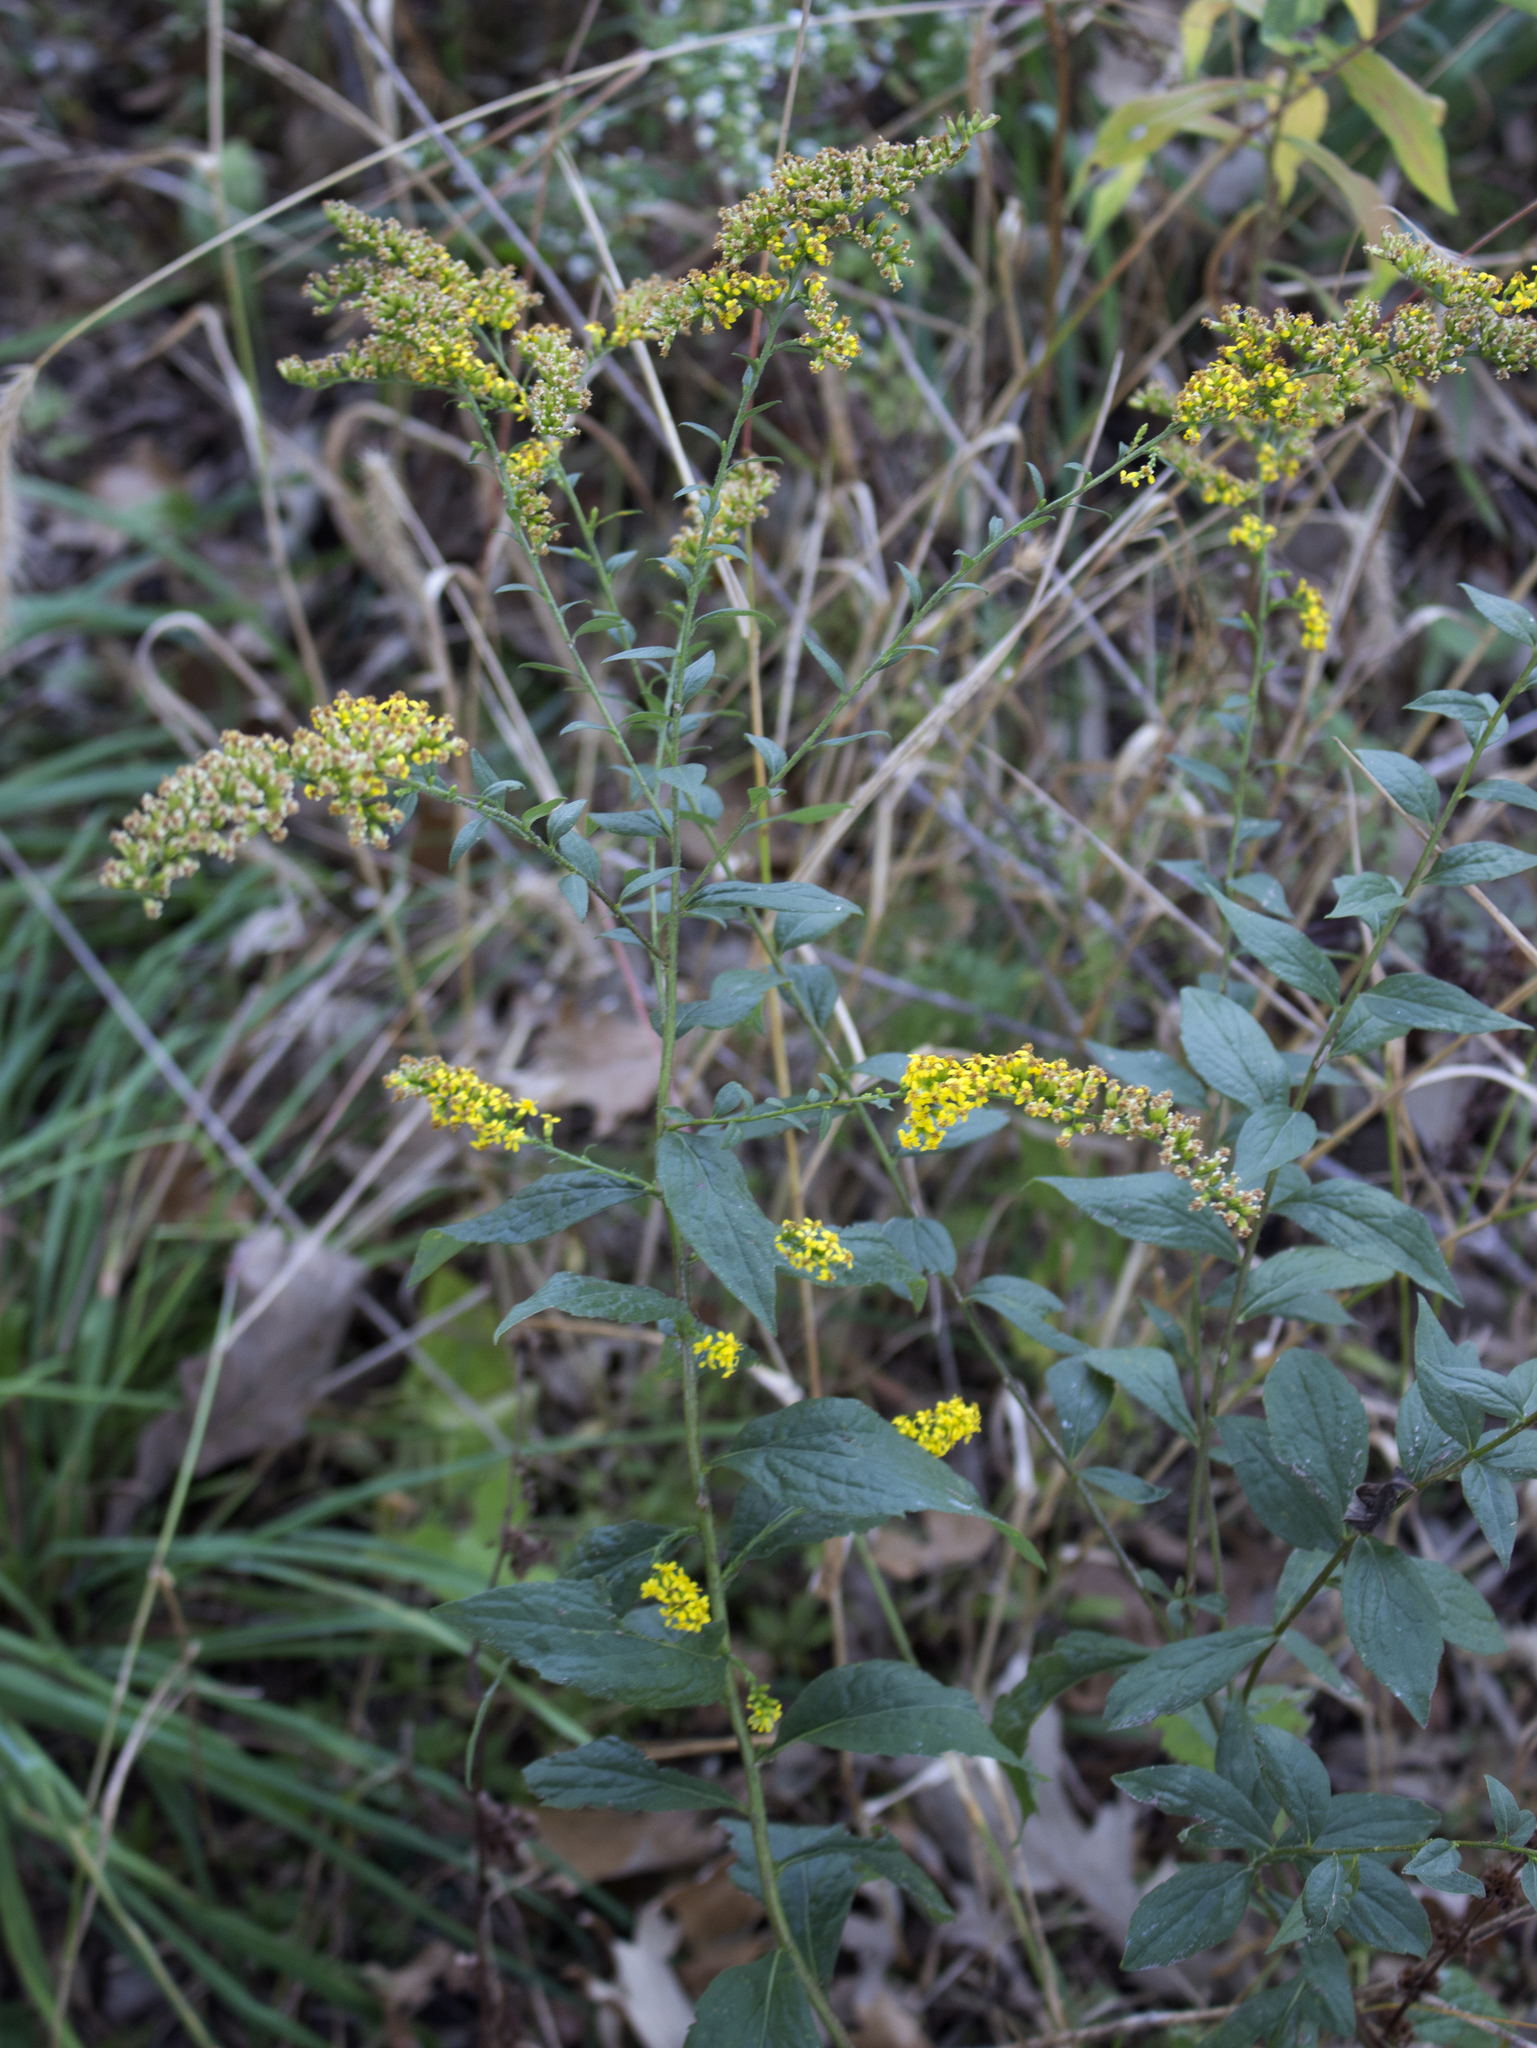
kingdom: Plantae
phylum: Tracheophyta
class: Magnoliopsida
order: Asterales
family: Asteraceae
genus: Solidago
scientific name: Solidago ulmifolia
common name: Elm-leaf goldenrod
